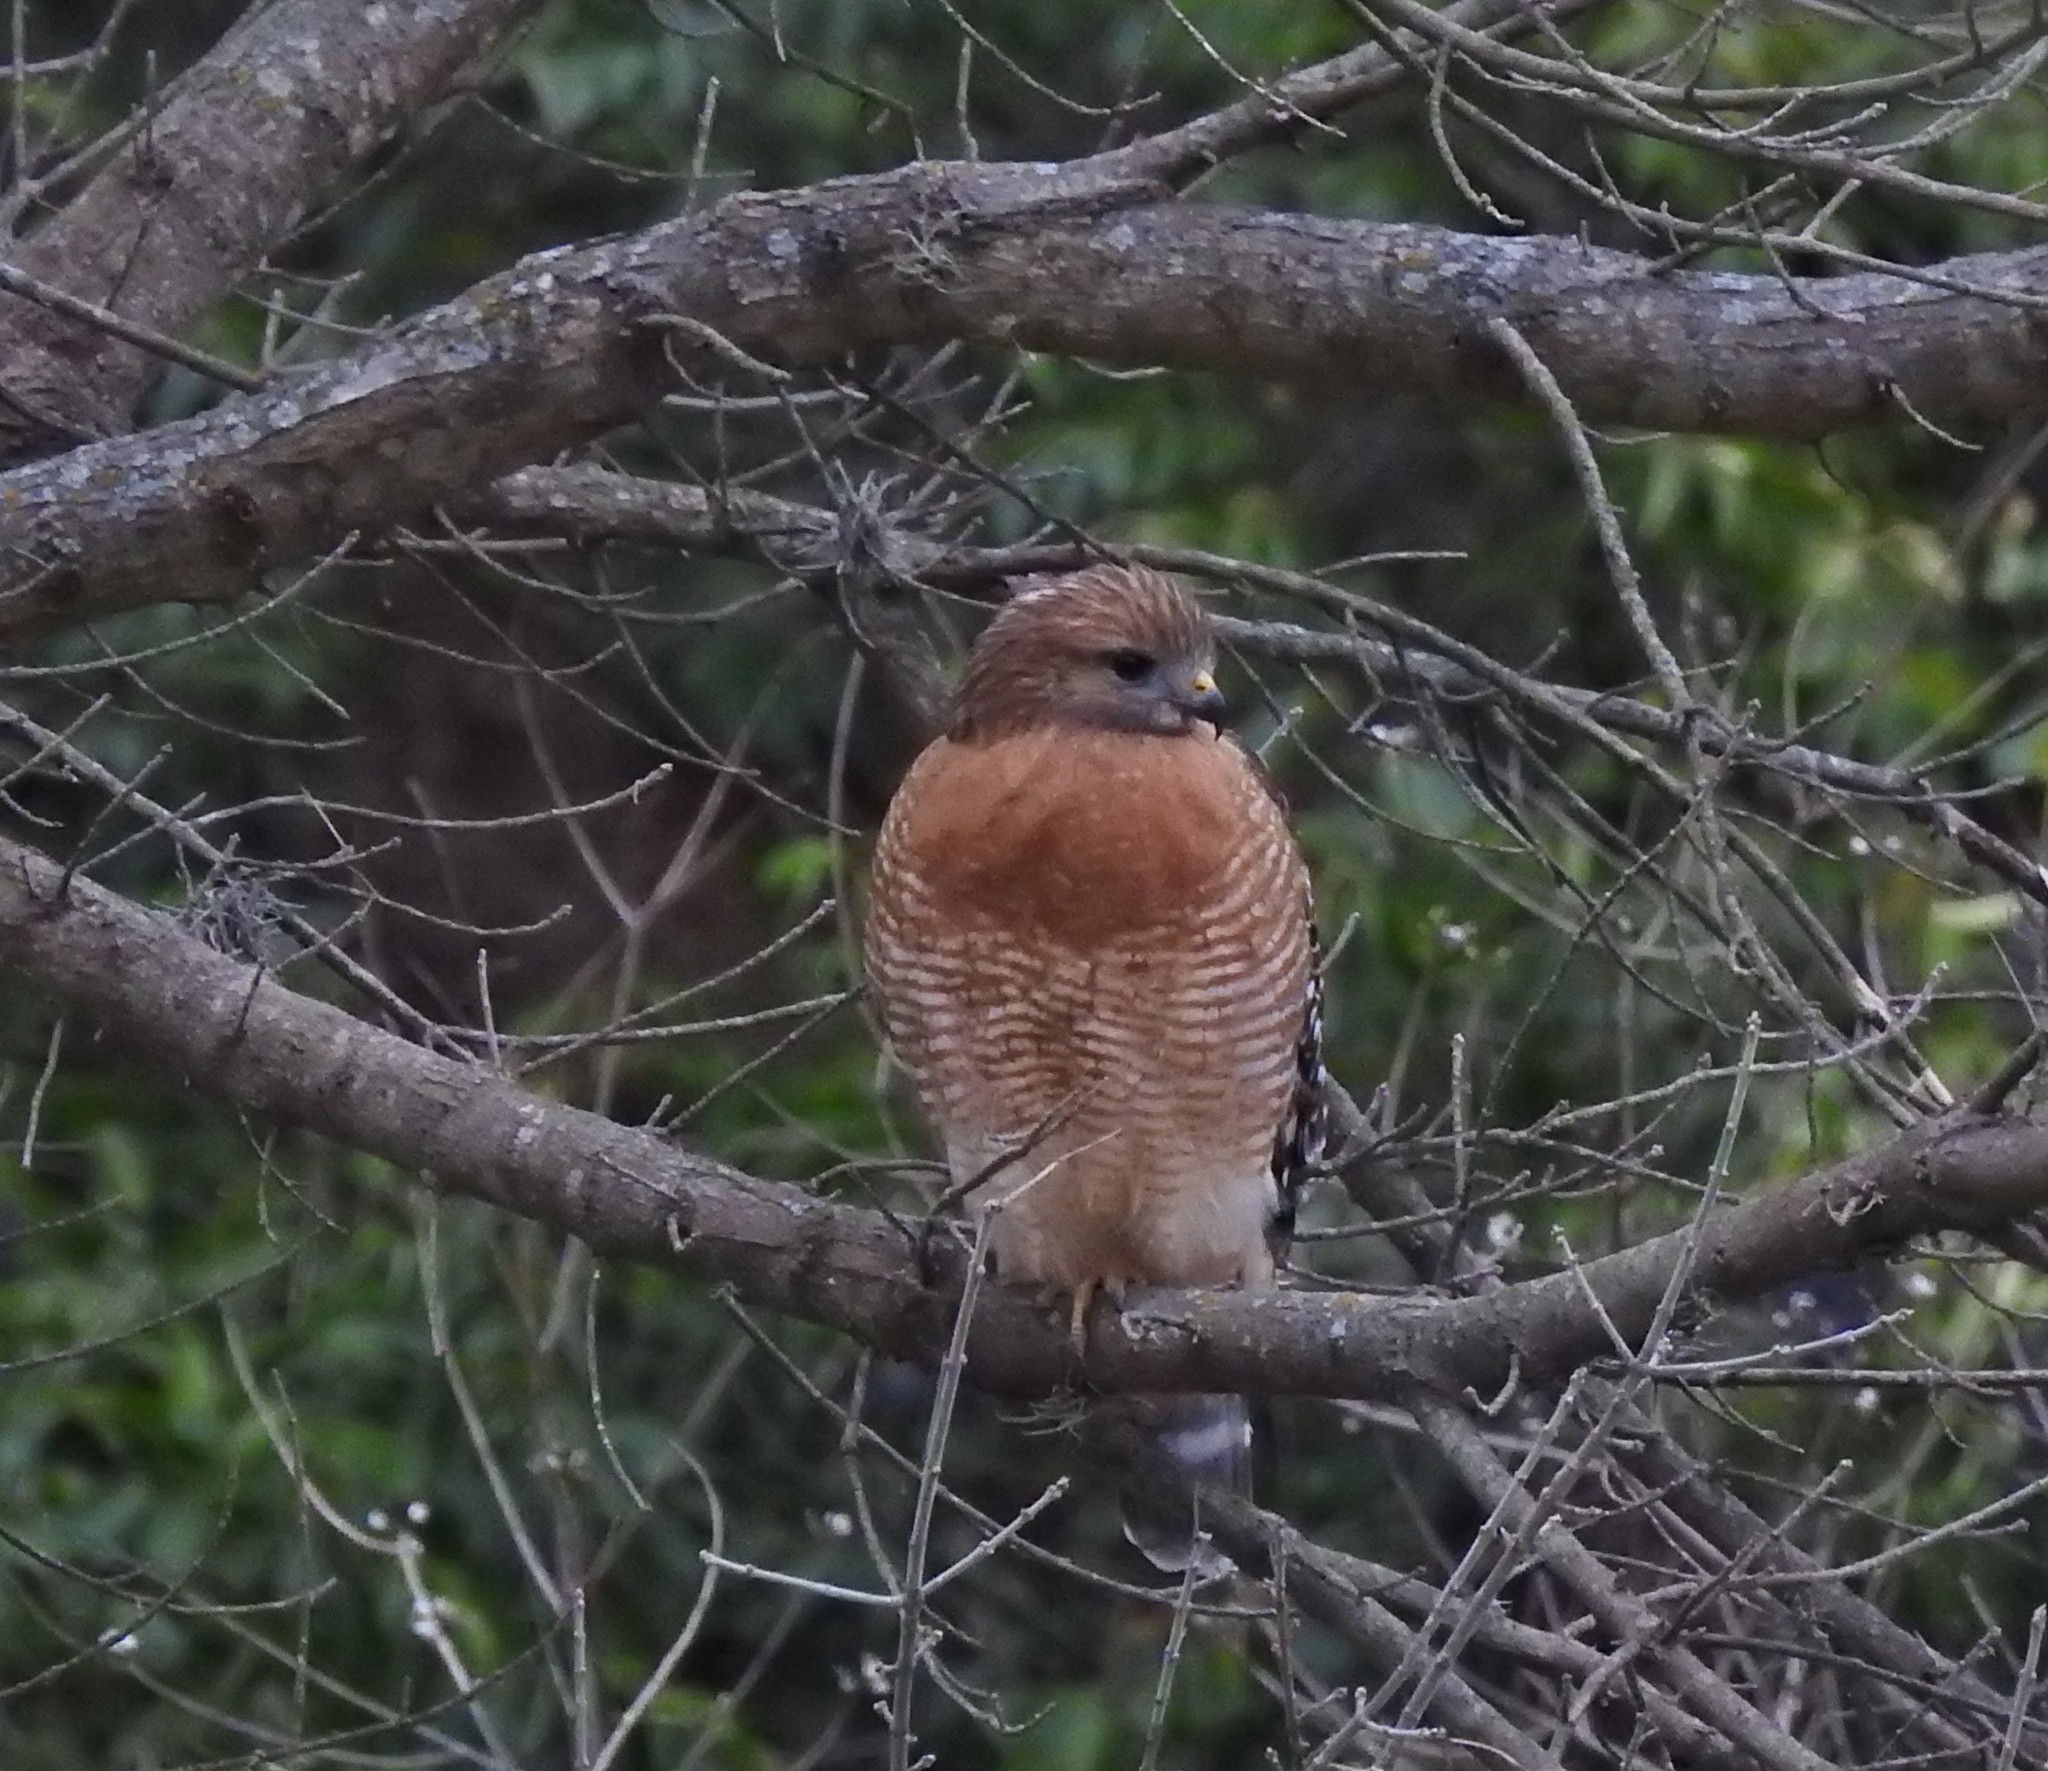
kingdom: Animalia
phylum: Chordata
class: Aves
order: Accipitriformes
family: Accipitridae
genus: Buteo
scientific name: Buteo lineatus
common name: Red-shouldered hawk
